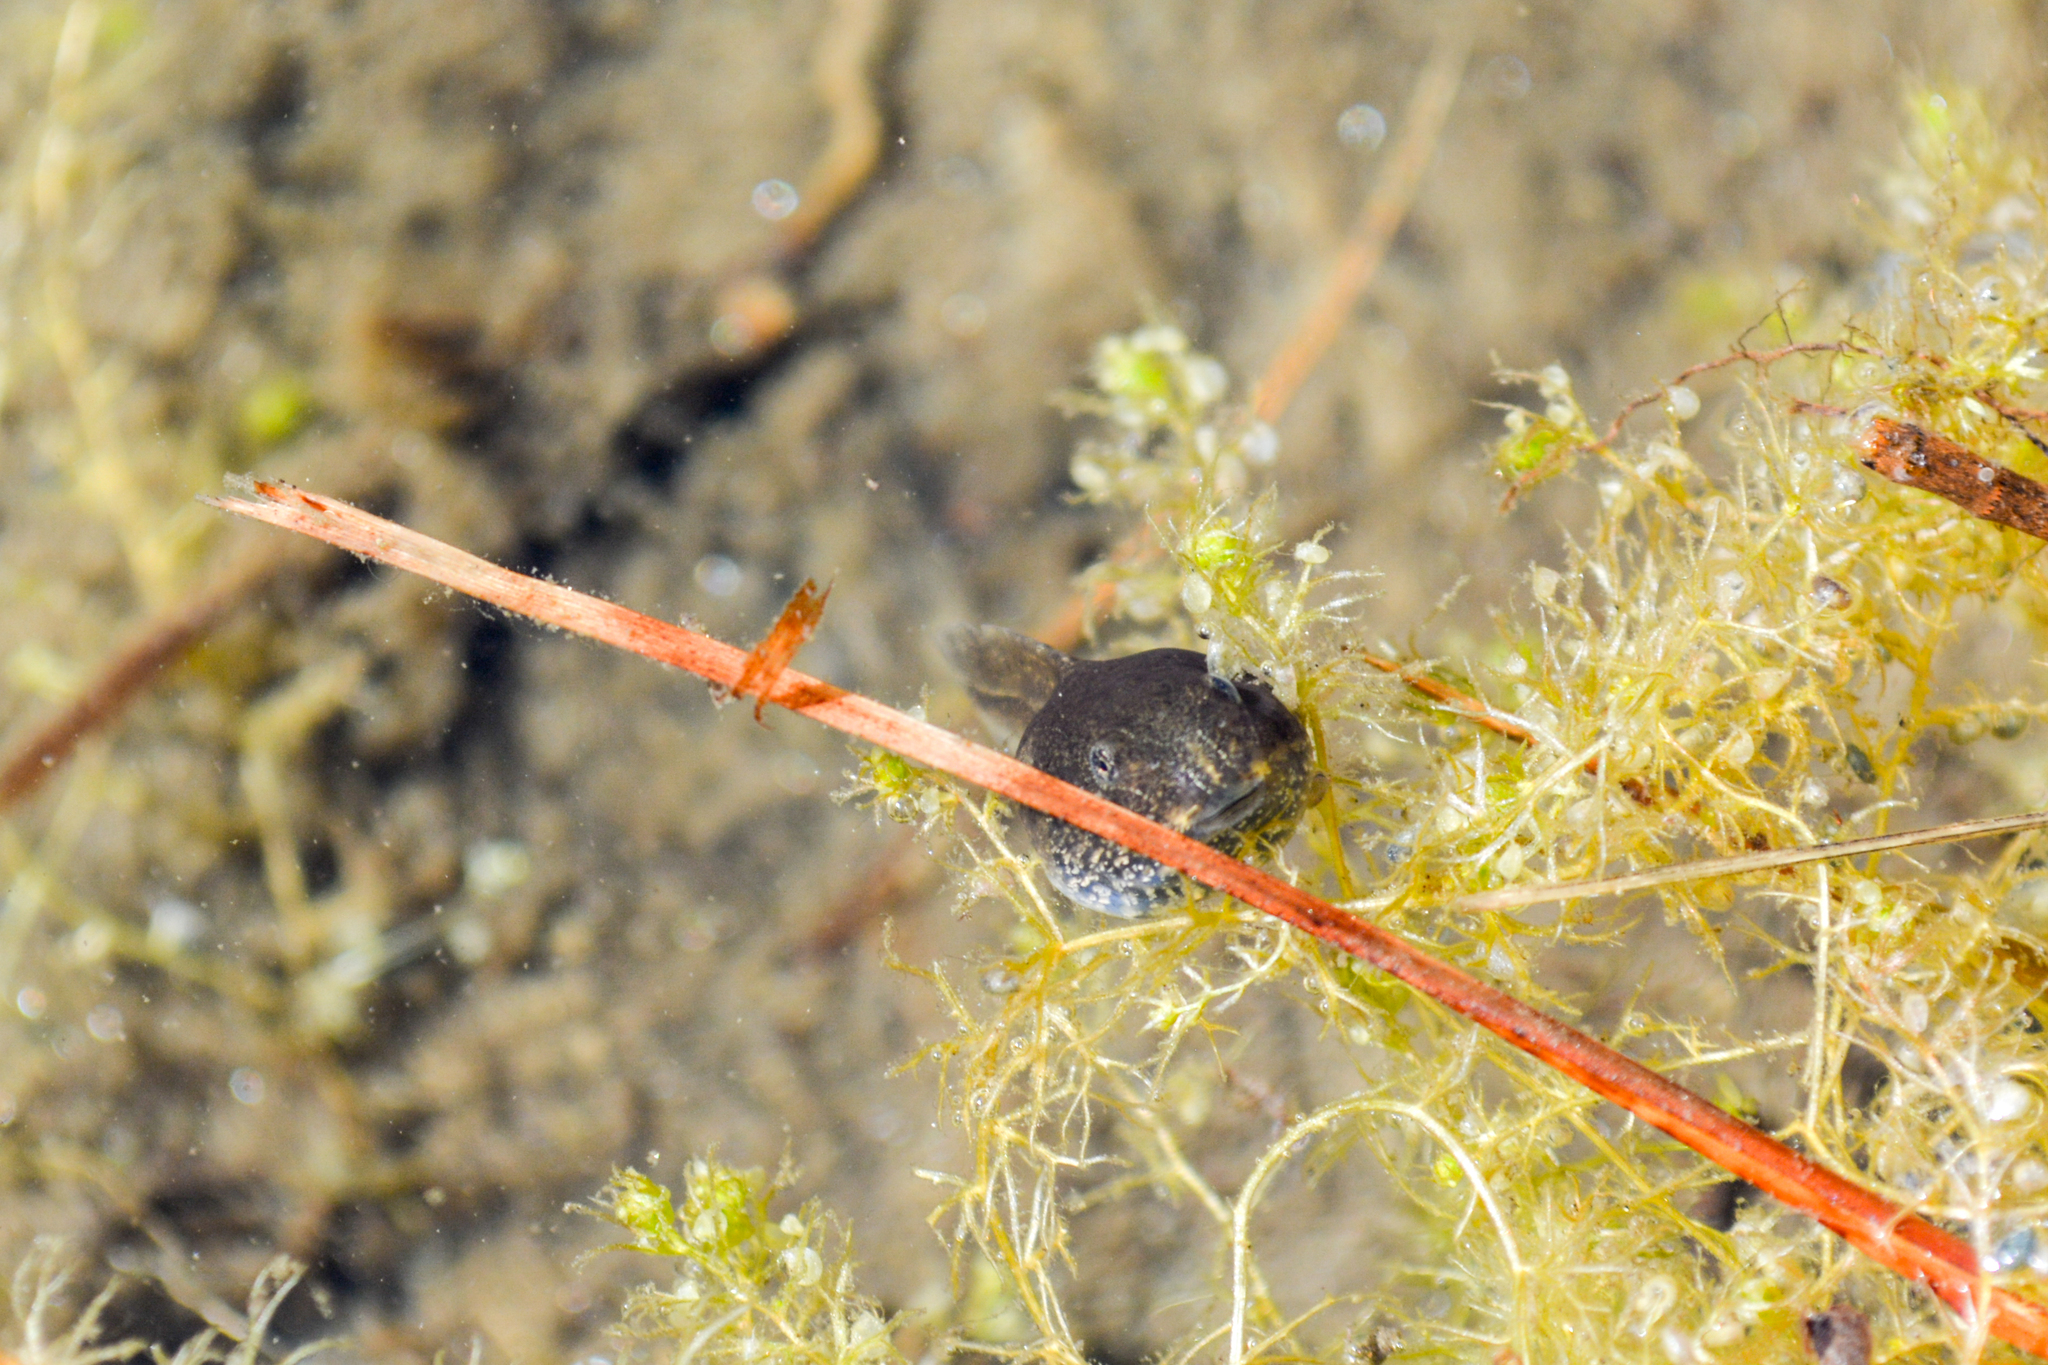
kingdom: Animalia
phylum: Chordata
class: Amphibia
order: Anura
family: Ranidae
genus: Rana
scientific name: Rana macrocnemis
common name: Banded frog
